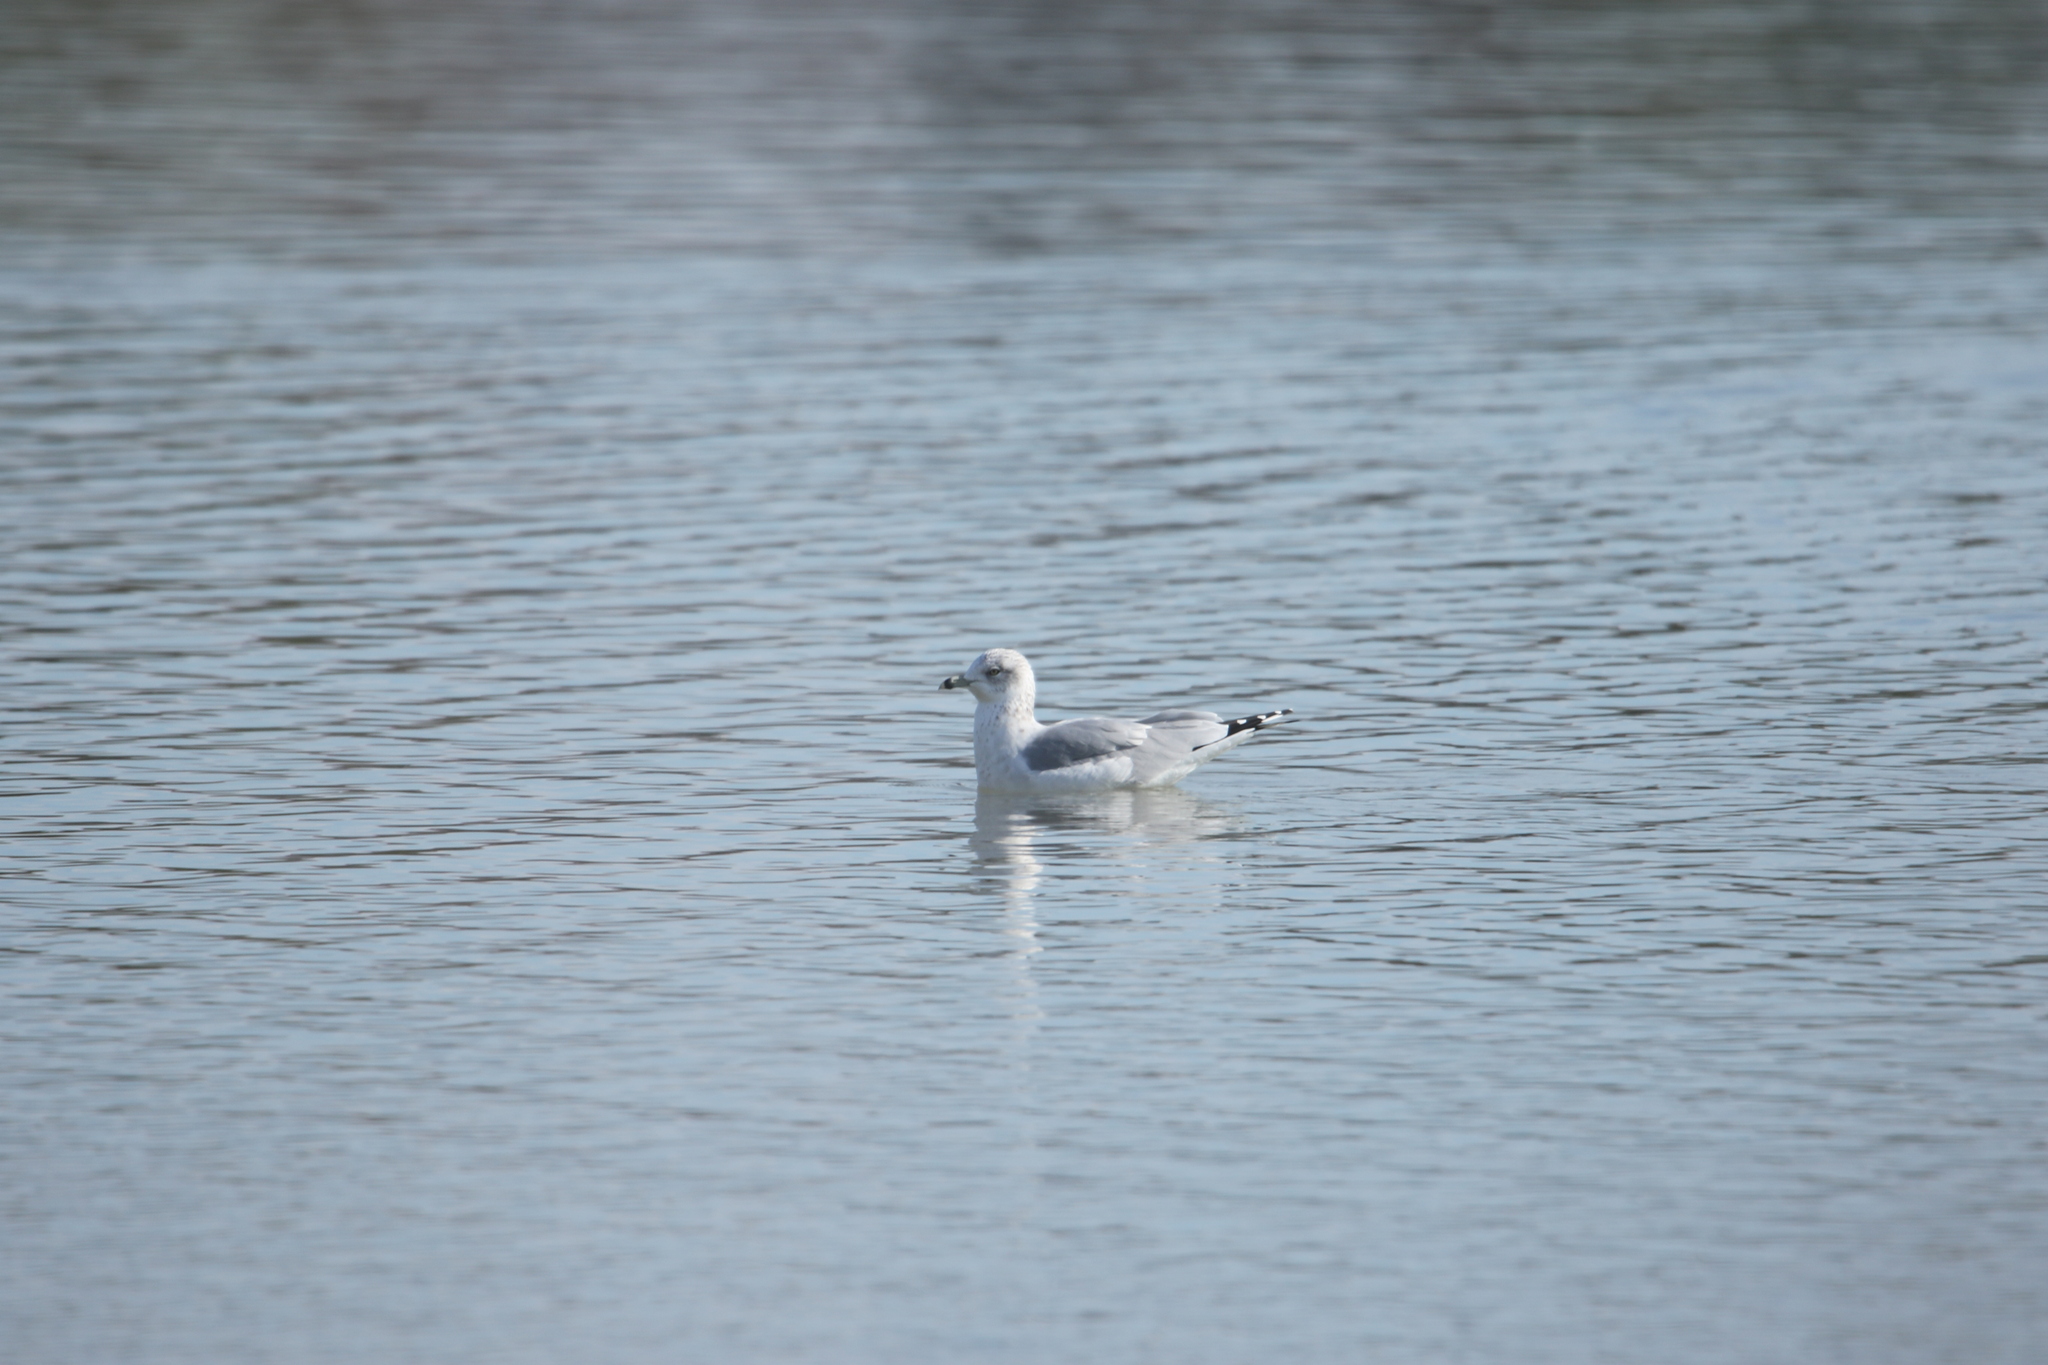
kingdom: Animalia
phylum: Chordata
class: Aves
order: Charadriiformes
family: Laridae
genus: Larus
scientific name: Larus delawarensis
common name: Ring-billed gull
